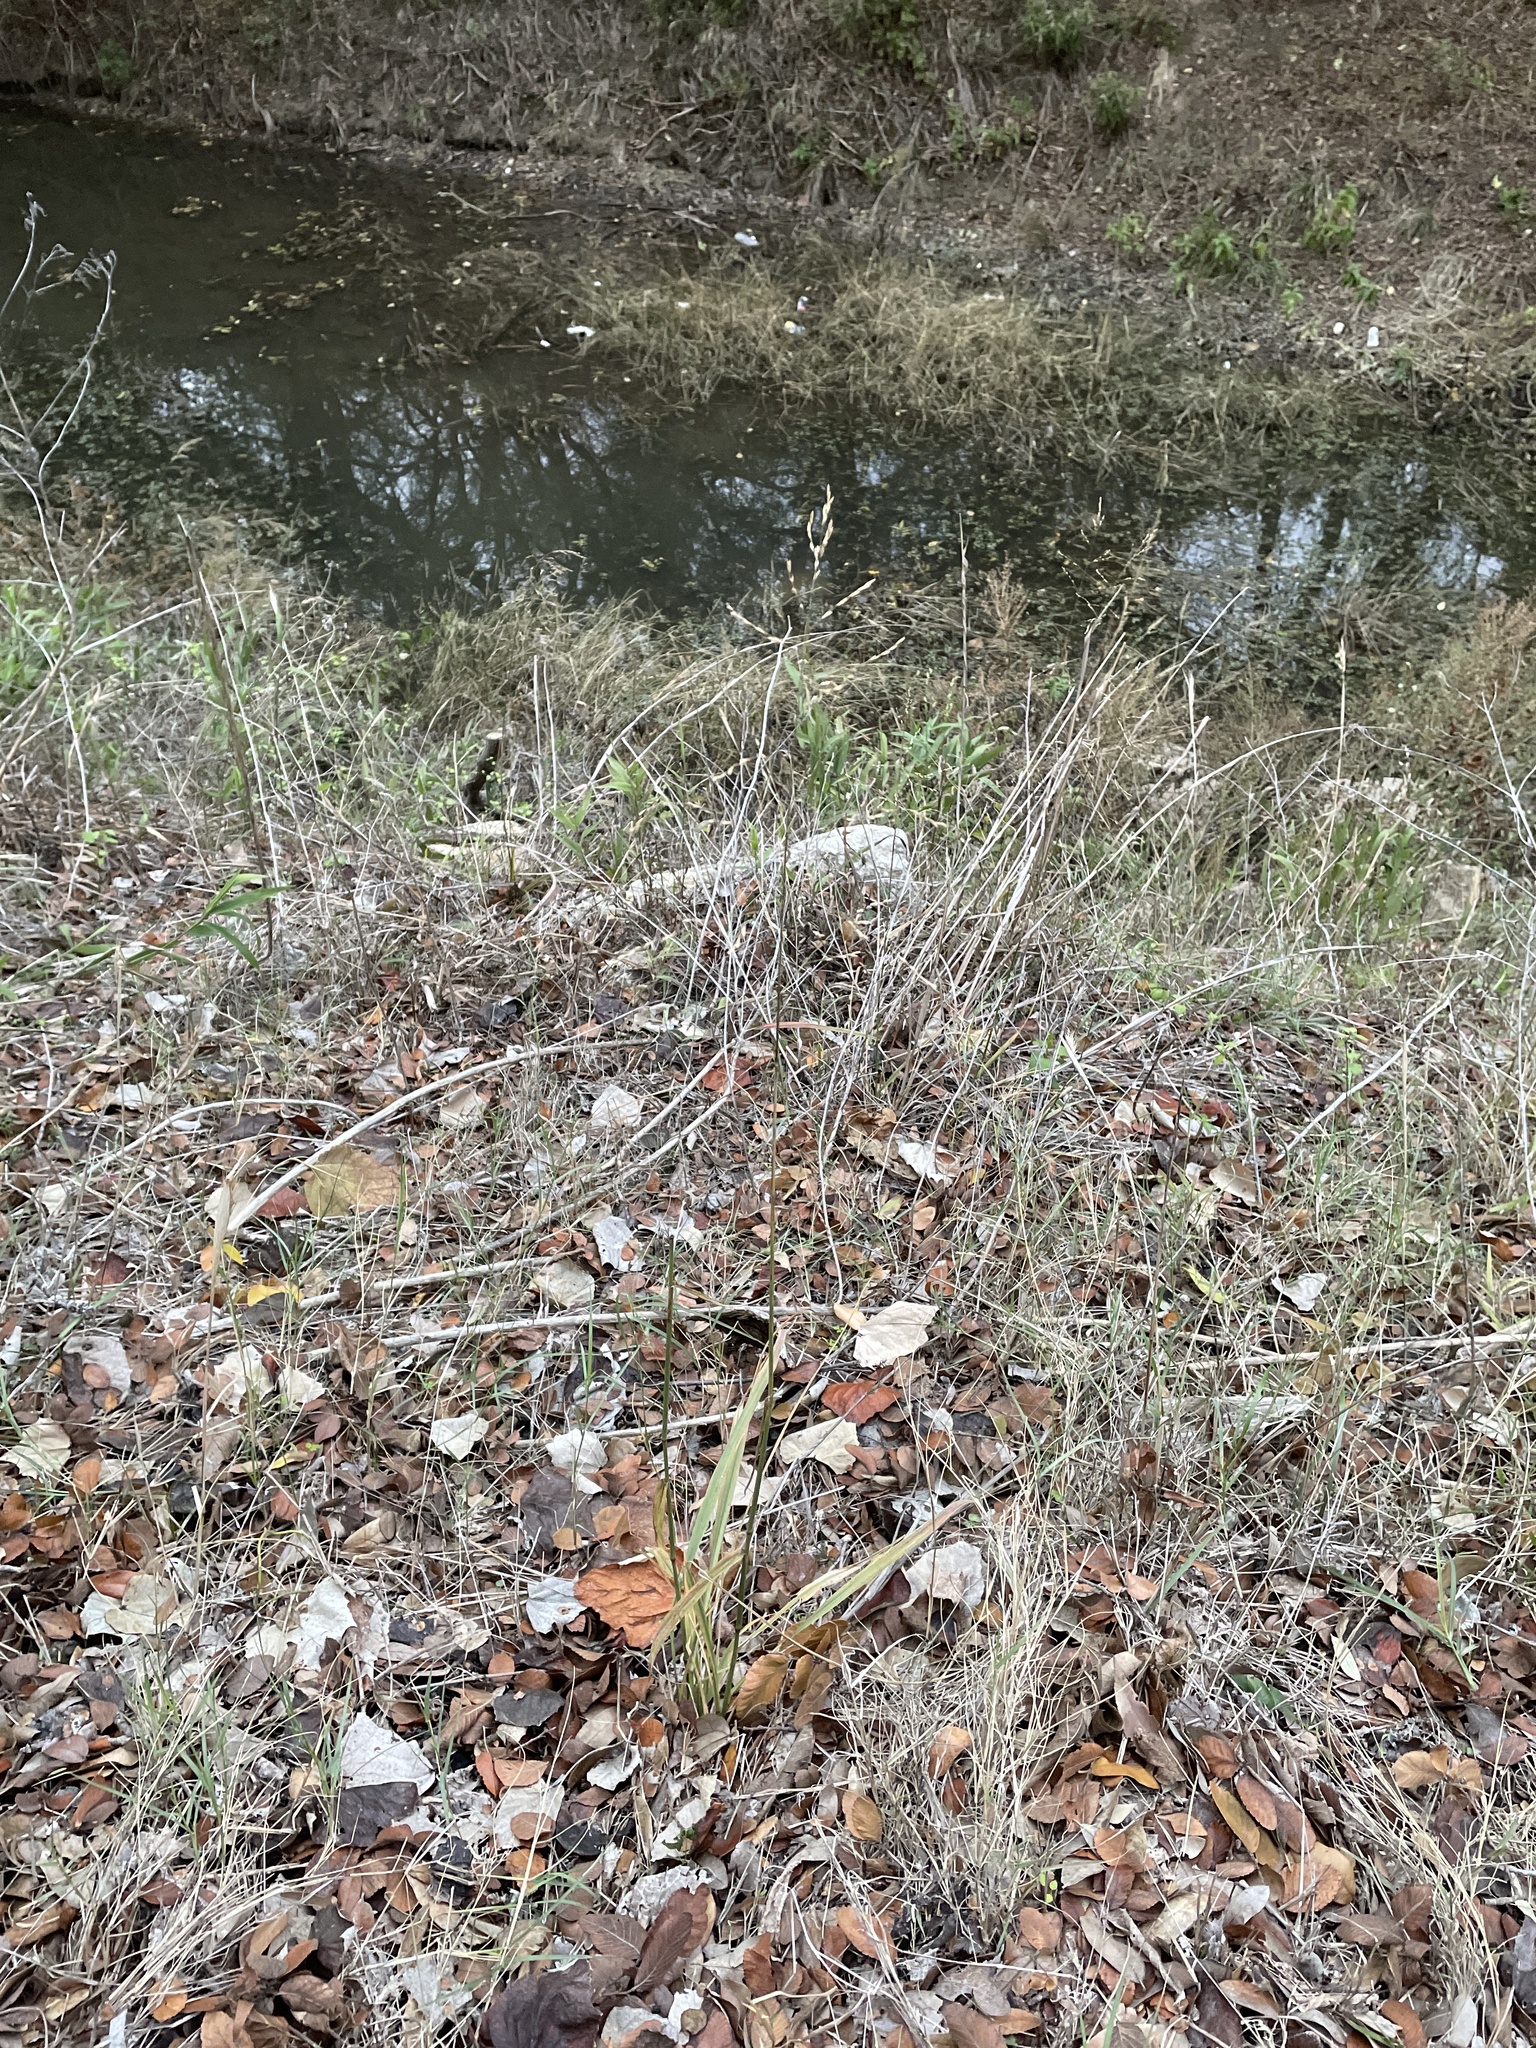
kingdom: Plantae
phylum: Tracheophyta
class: Liliopsida
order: Poales
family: Poaceae
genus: Tridens
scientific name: Tridens flavus
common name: Purpletop
